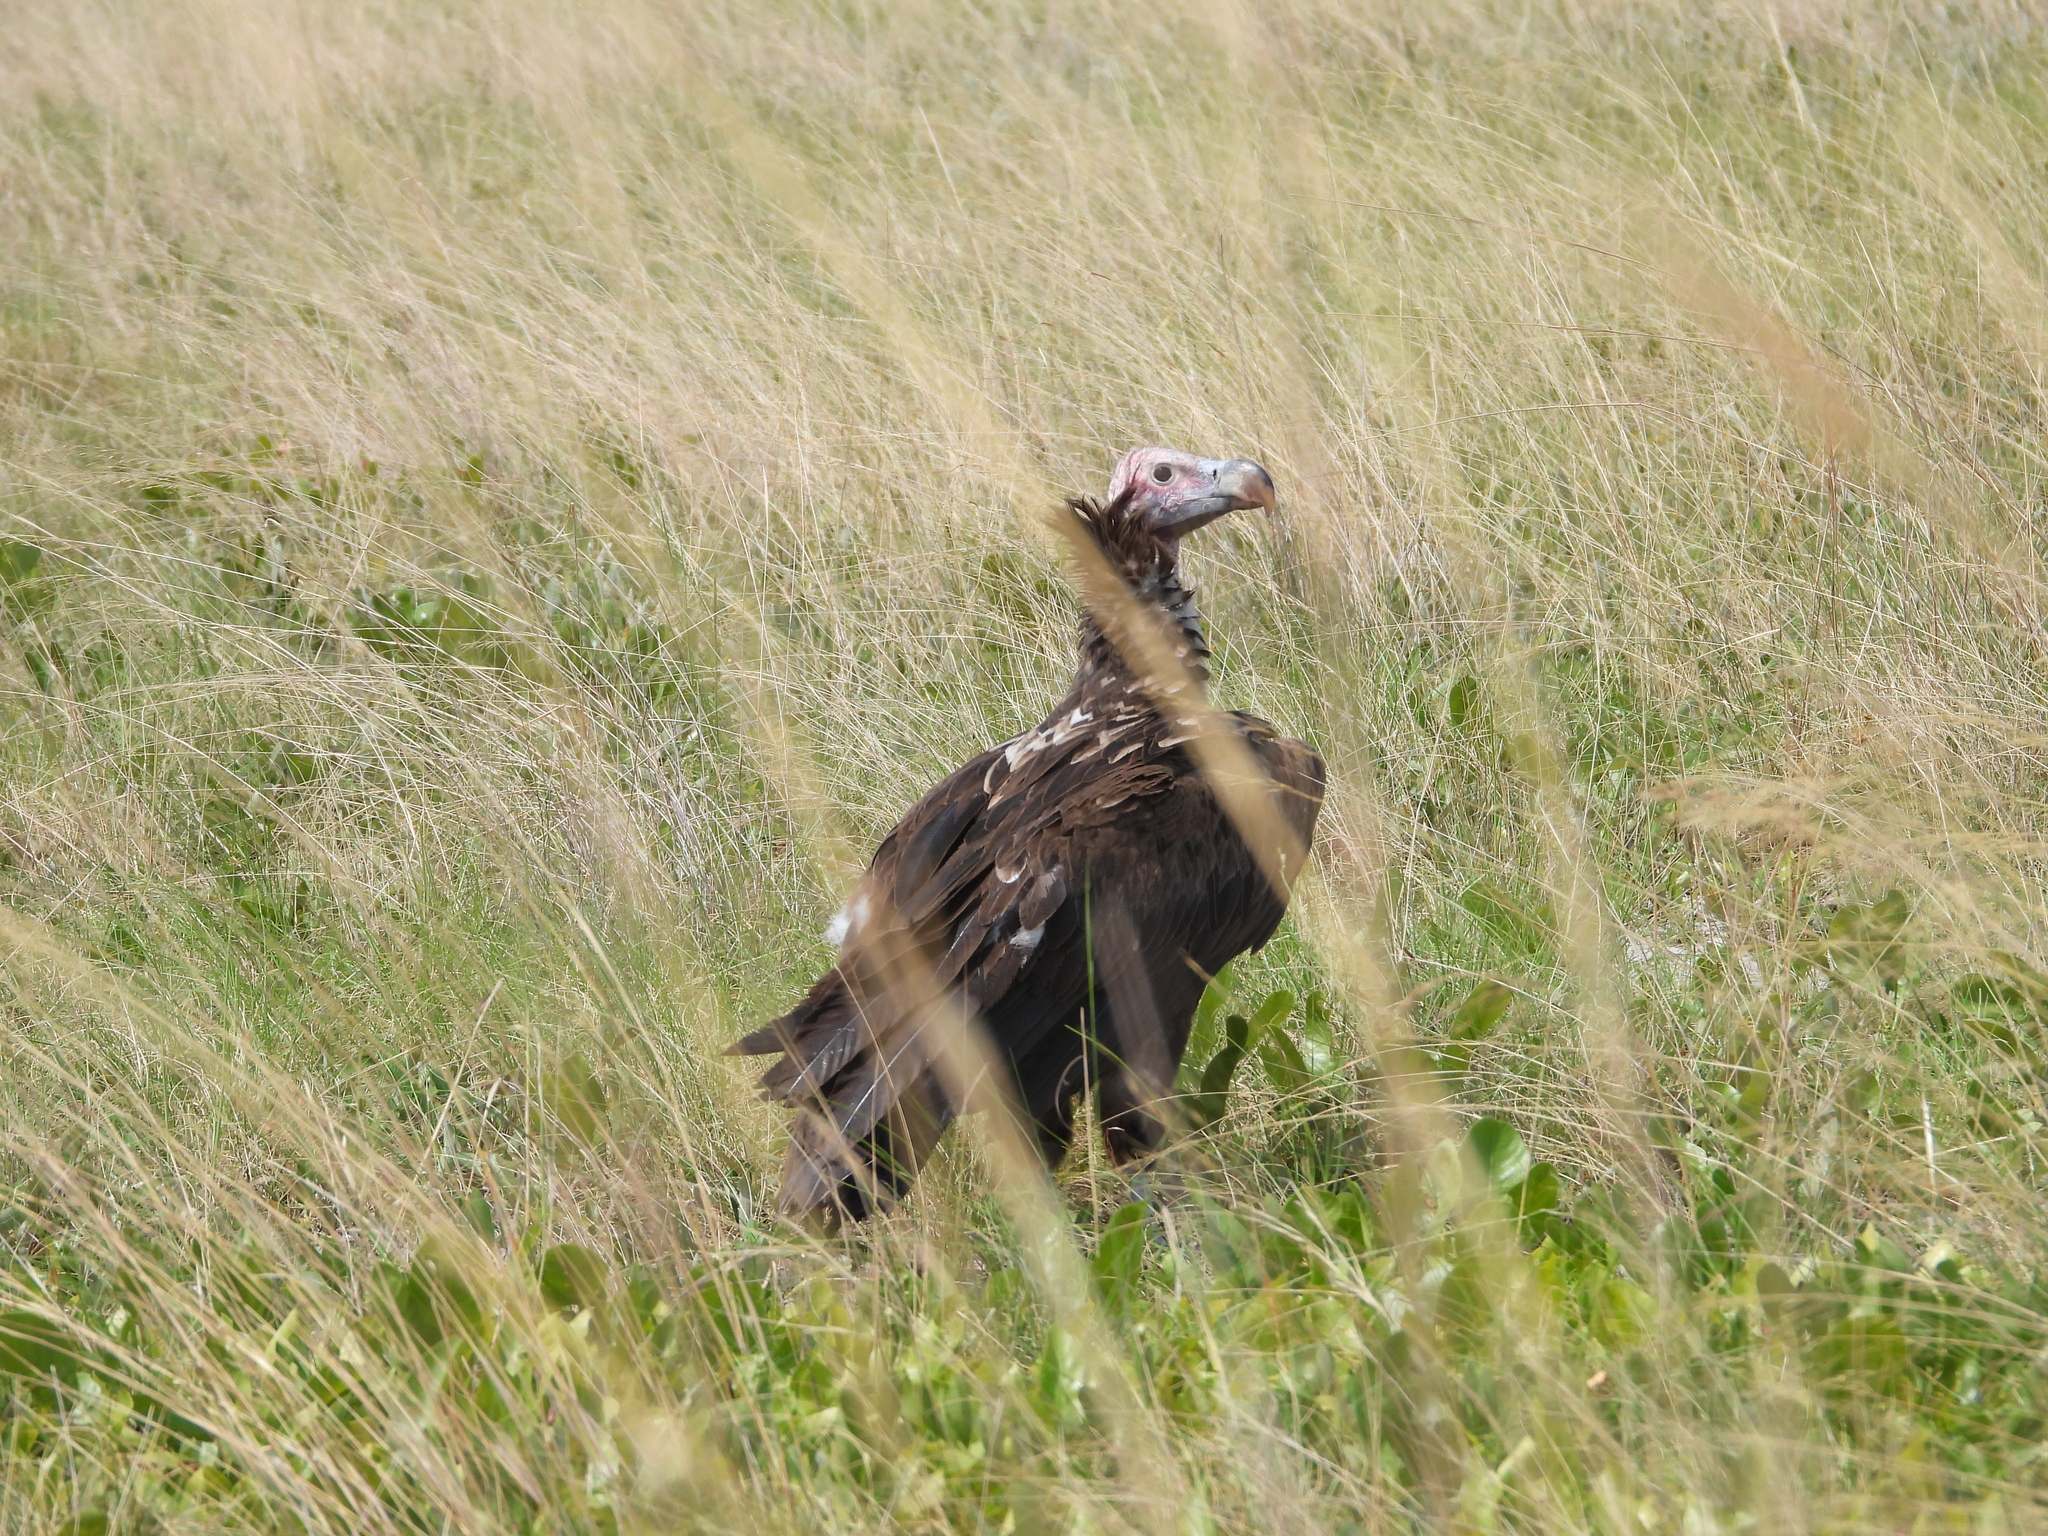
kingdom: Animalia
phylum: Chordata
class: Aves
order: Accipitriformes
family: Accipitridae
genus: Torgos
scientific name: Torgos tracheliotos
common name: Lappet-faced vulture
